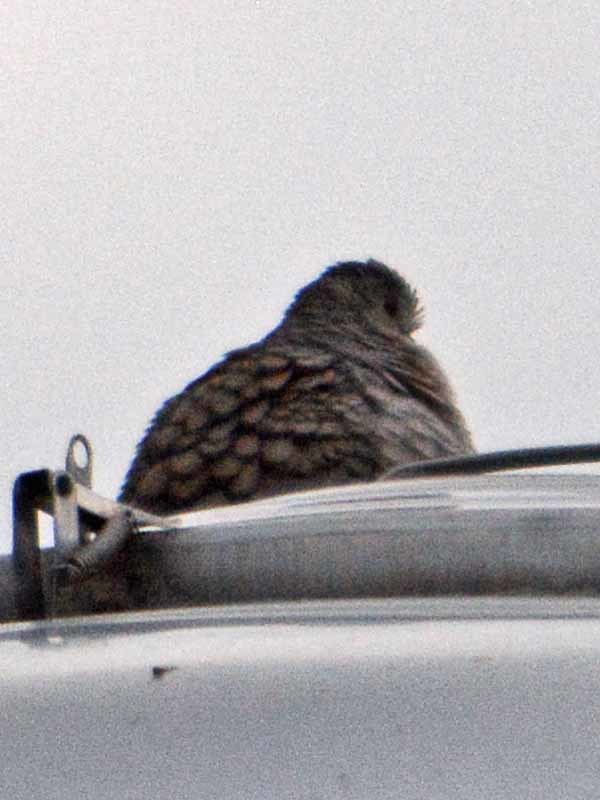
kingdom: Animalia
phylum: Chordata
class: Aves
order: Columbiformes
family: Columbidae
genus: Columbina
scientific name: Columbina inca
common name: Inca dove
